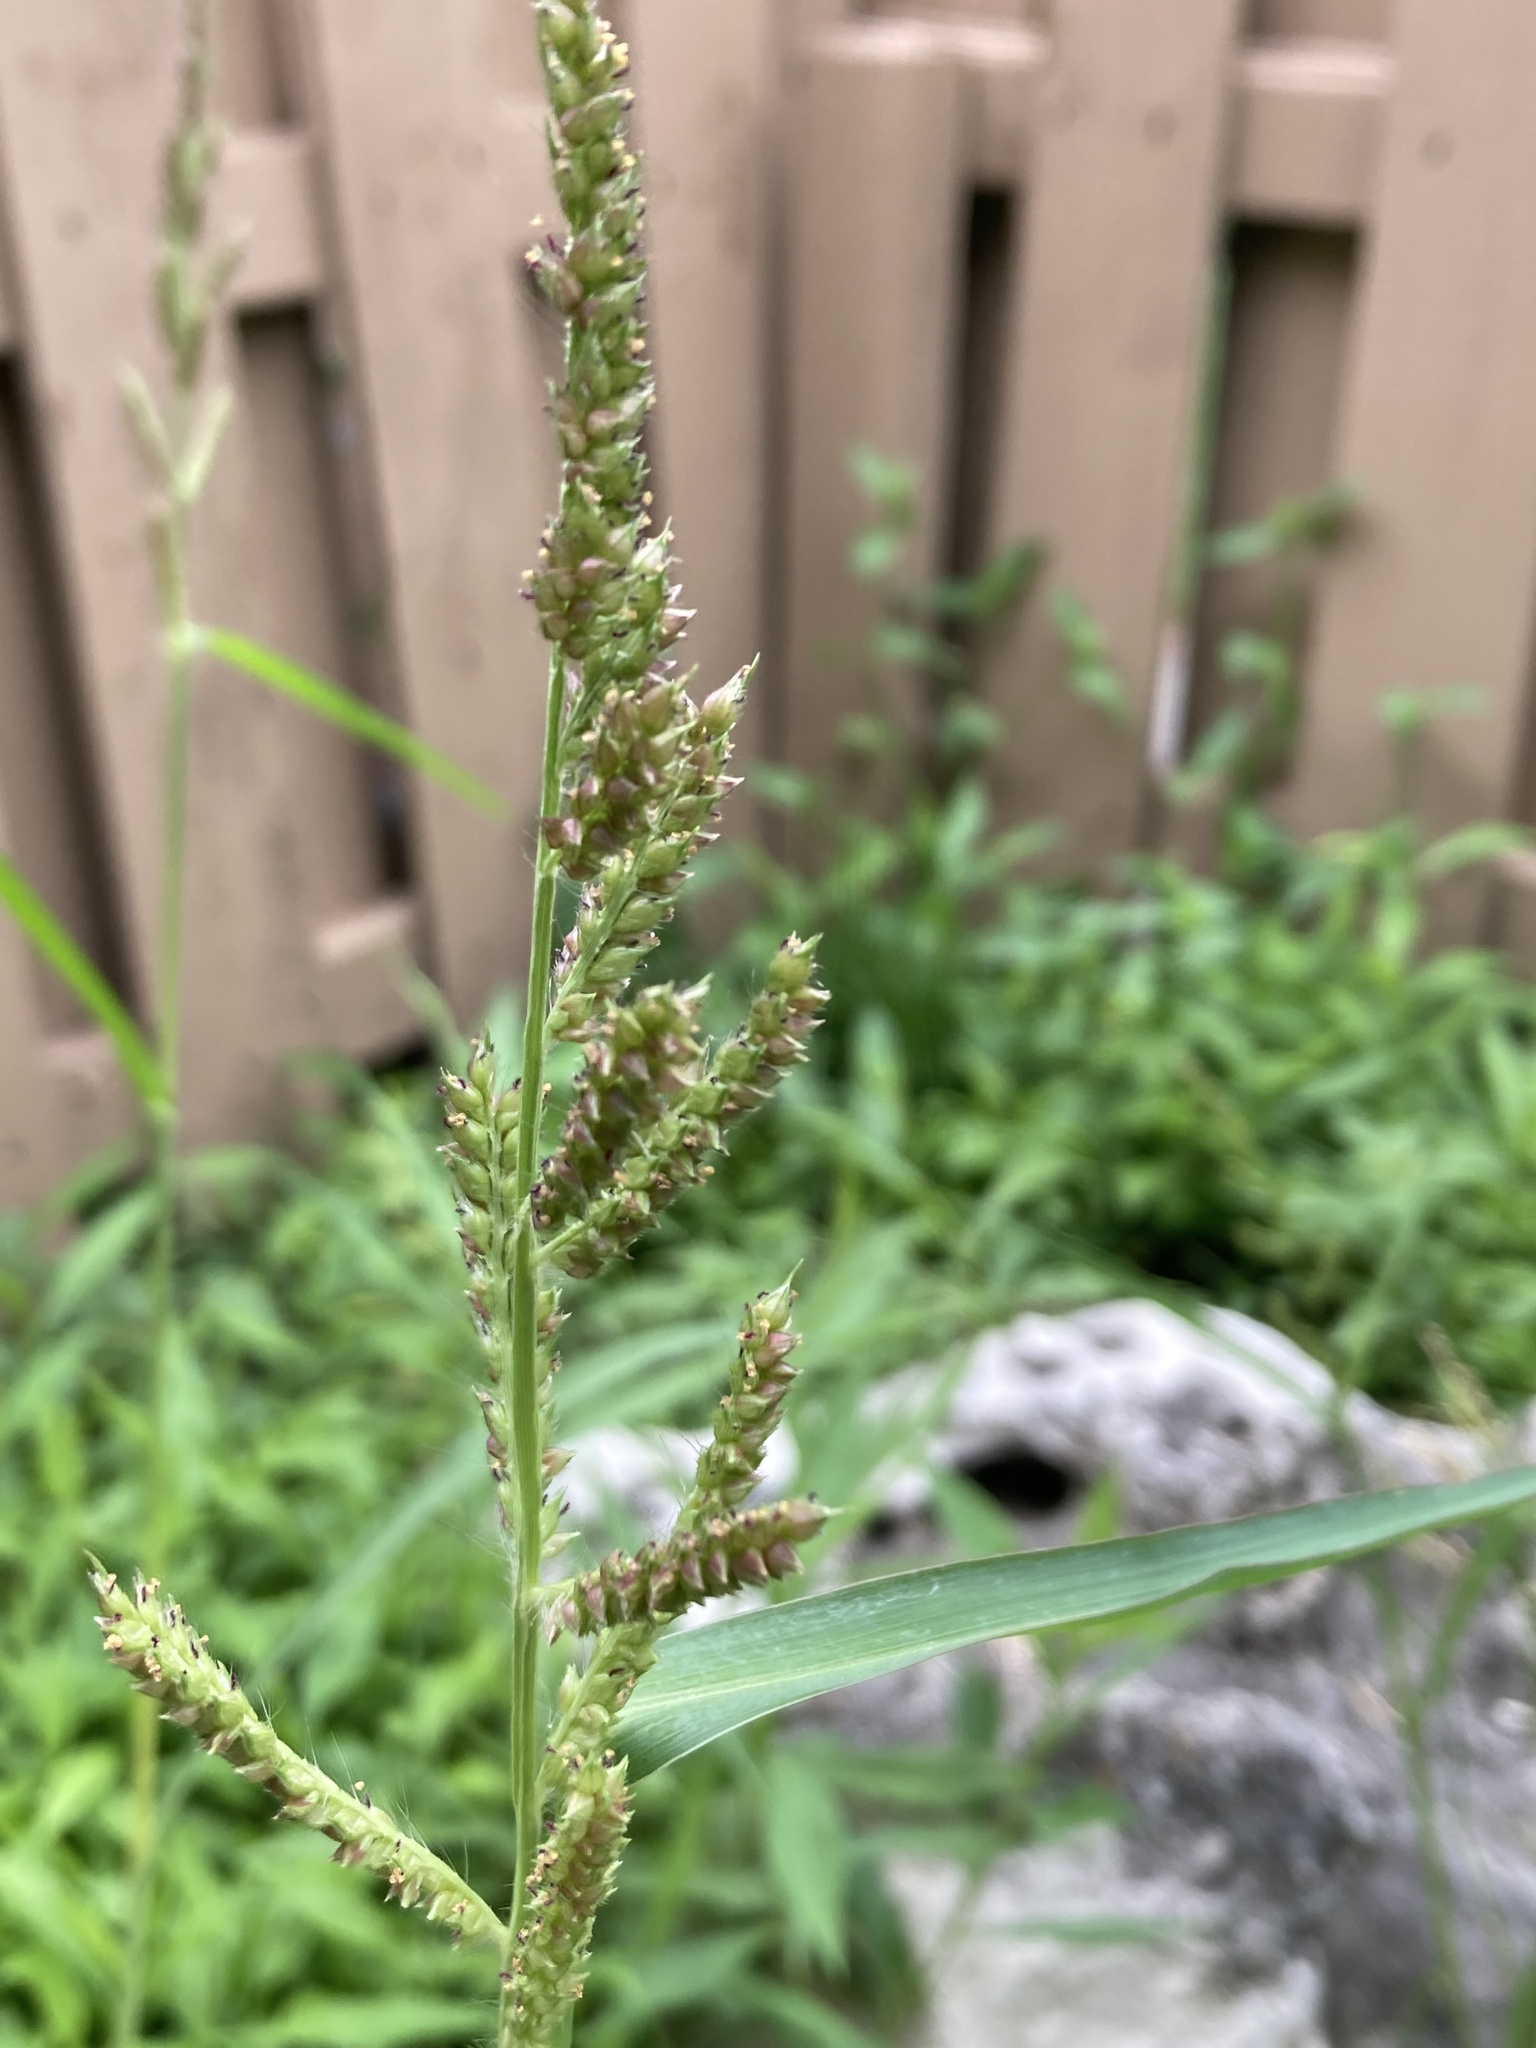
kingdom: Plantae
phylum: Tracheophyta
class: Liliopsida
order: Poales
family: Poaceae
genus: Echinochloa
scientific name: Echinochloa crus-galli
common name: Cockspur
